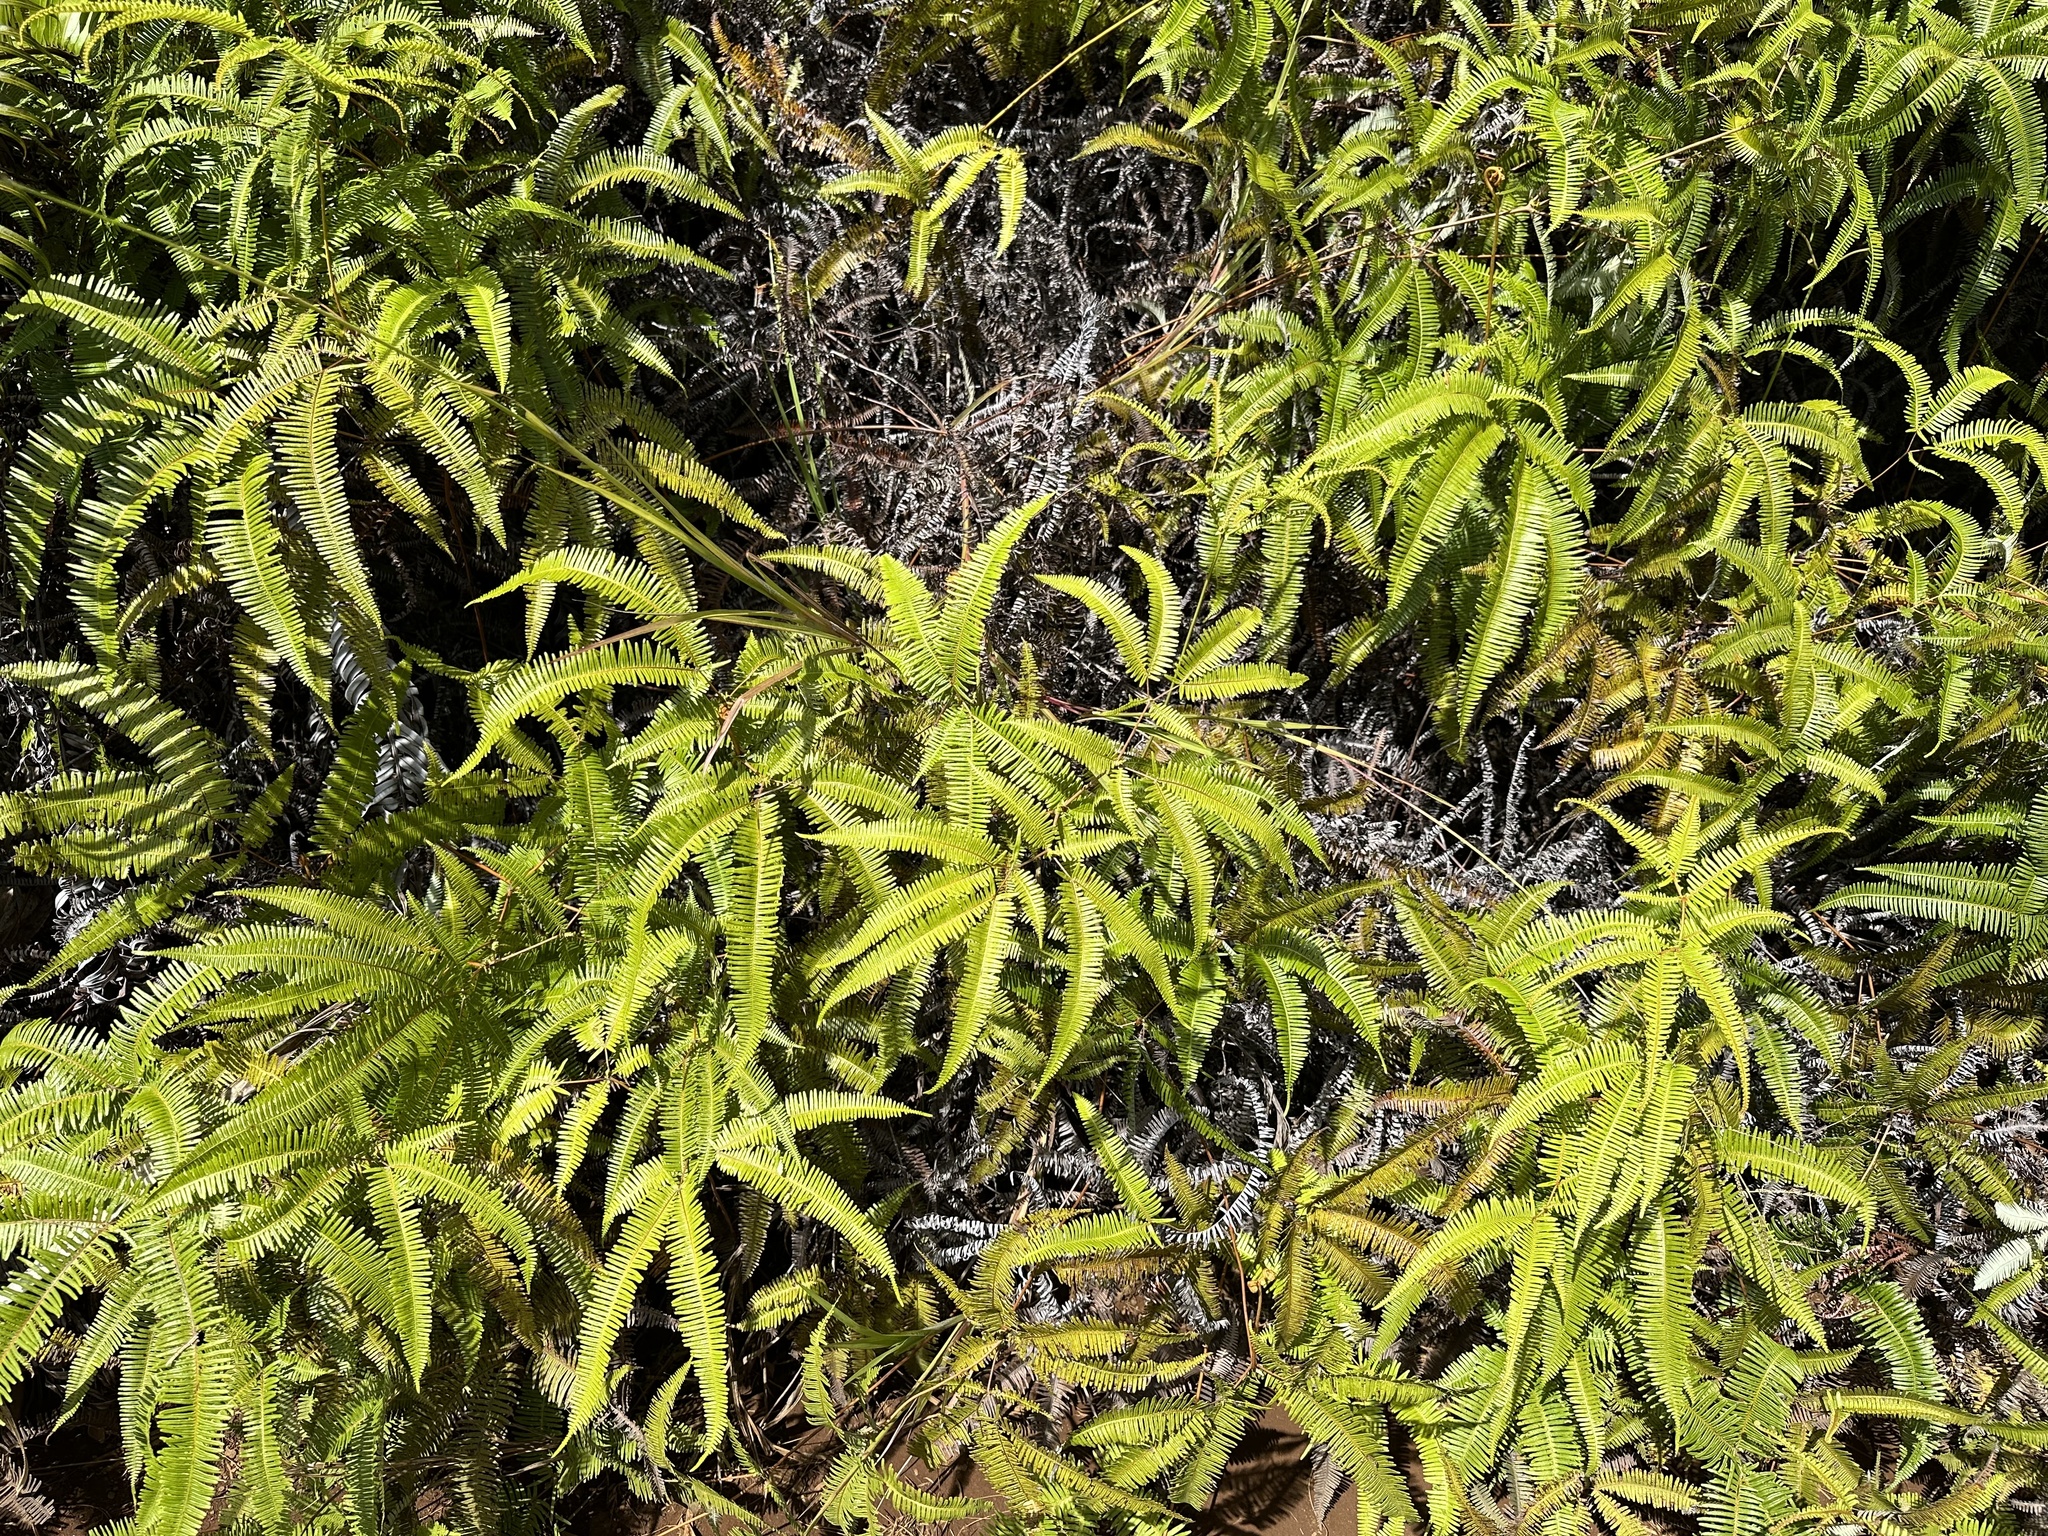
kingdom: Plantae
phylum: Tracheophyta
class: Polypodiopsida
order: Gleicheniales
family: Gleicheniaceae
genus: Dicranopteris
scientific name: Dicranopteris linearis
